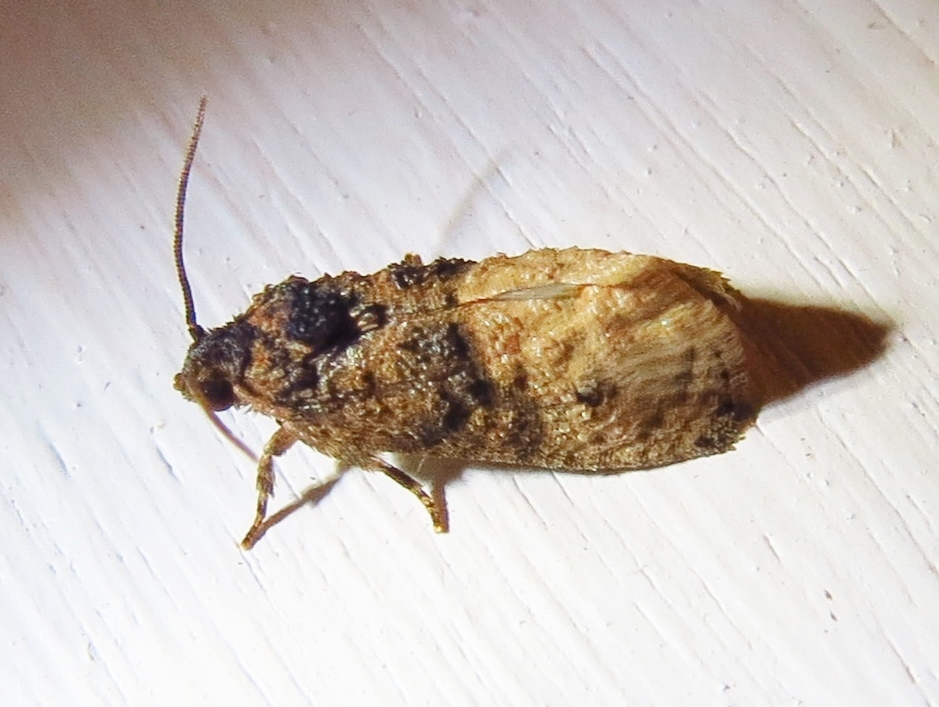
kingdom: Animalia
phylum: Arthropoda
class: Insecta
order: Lepidoptera
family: Tortricidae
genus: Ecdytolopha
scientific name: Ecdytolopha mana
